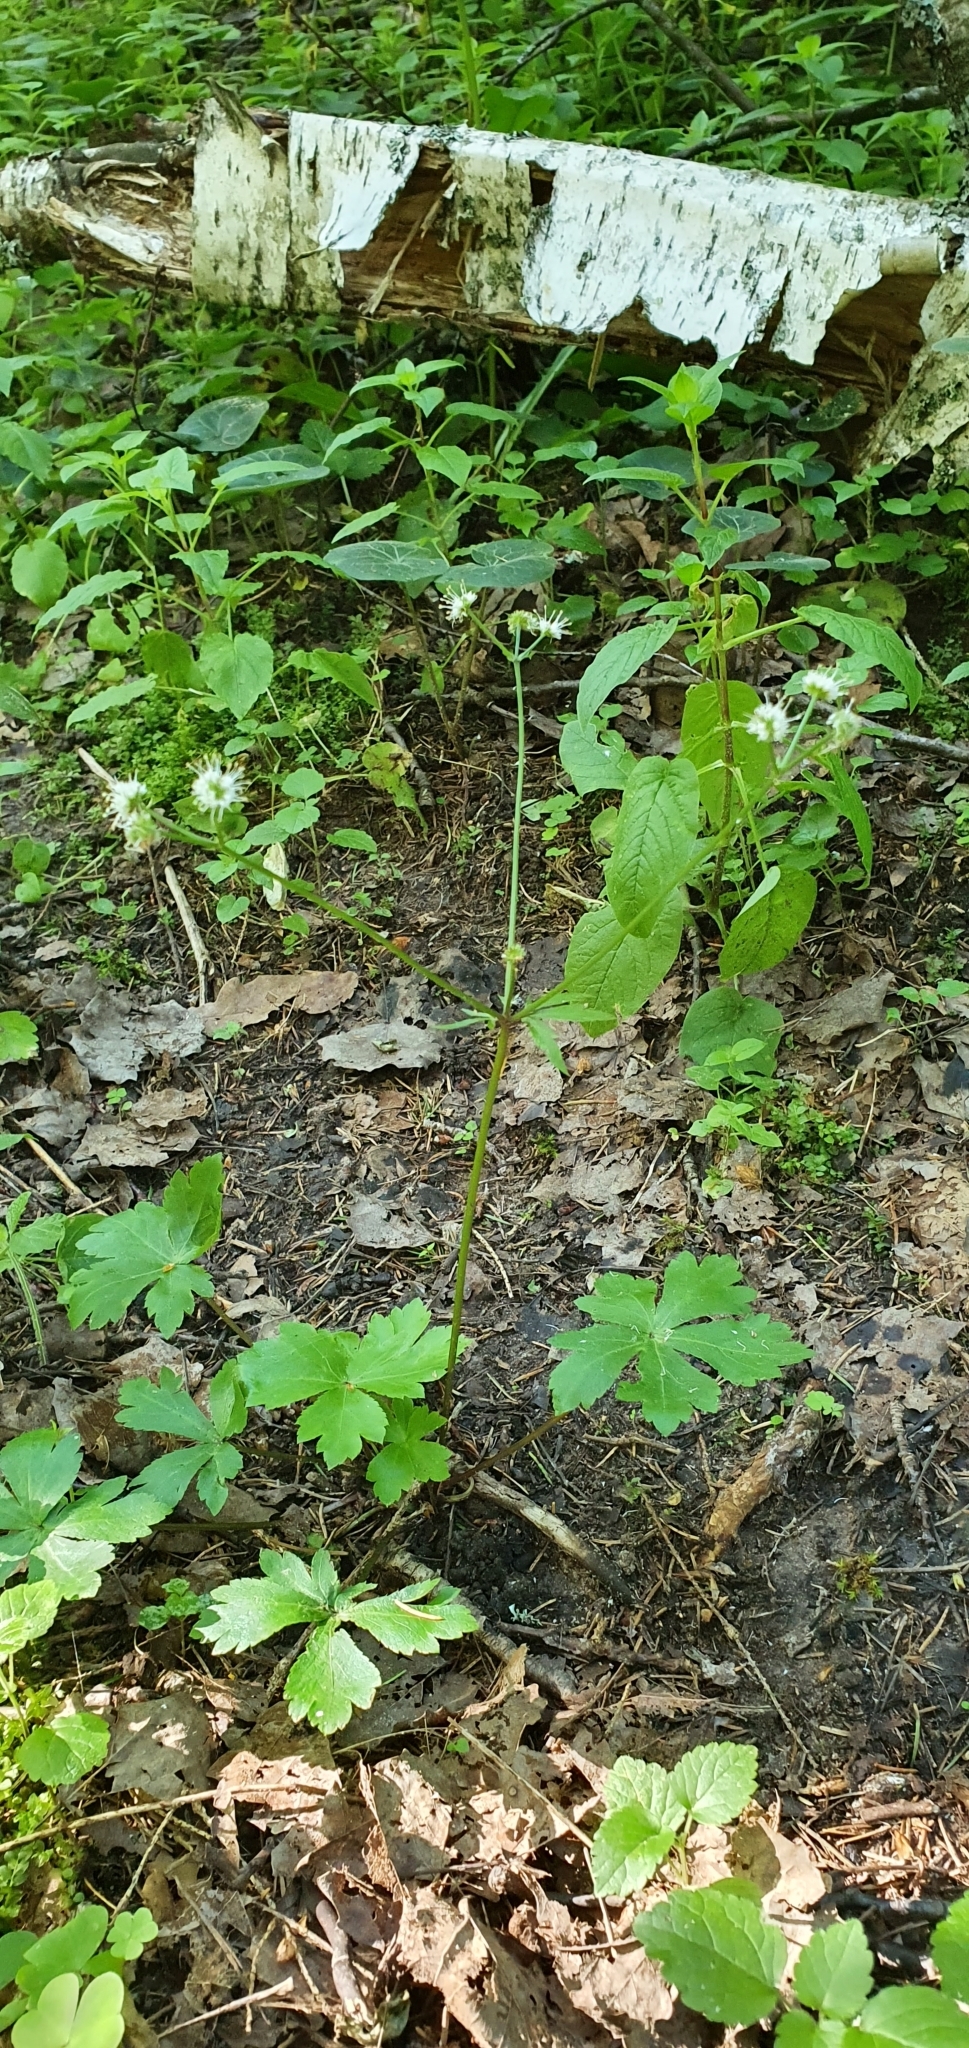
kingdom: Plantae
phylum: Tracheophyta
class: Magnoliopsida
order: Apiales
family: Apiaceae
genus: Sanicula
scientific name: Sanicula europaea
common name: Sanicle
